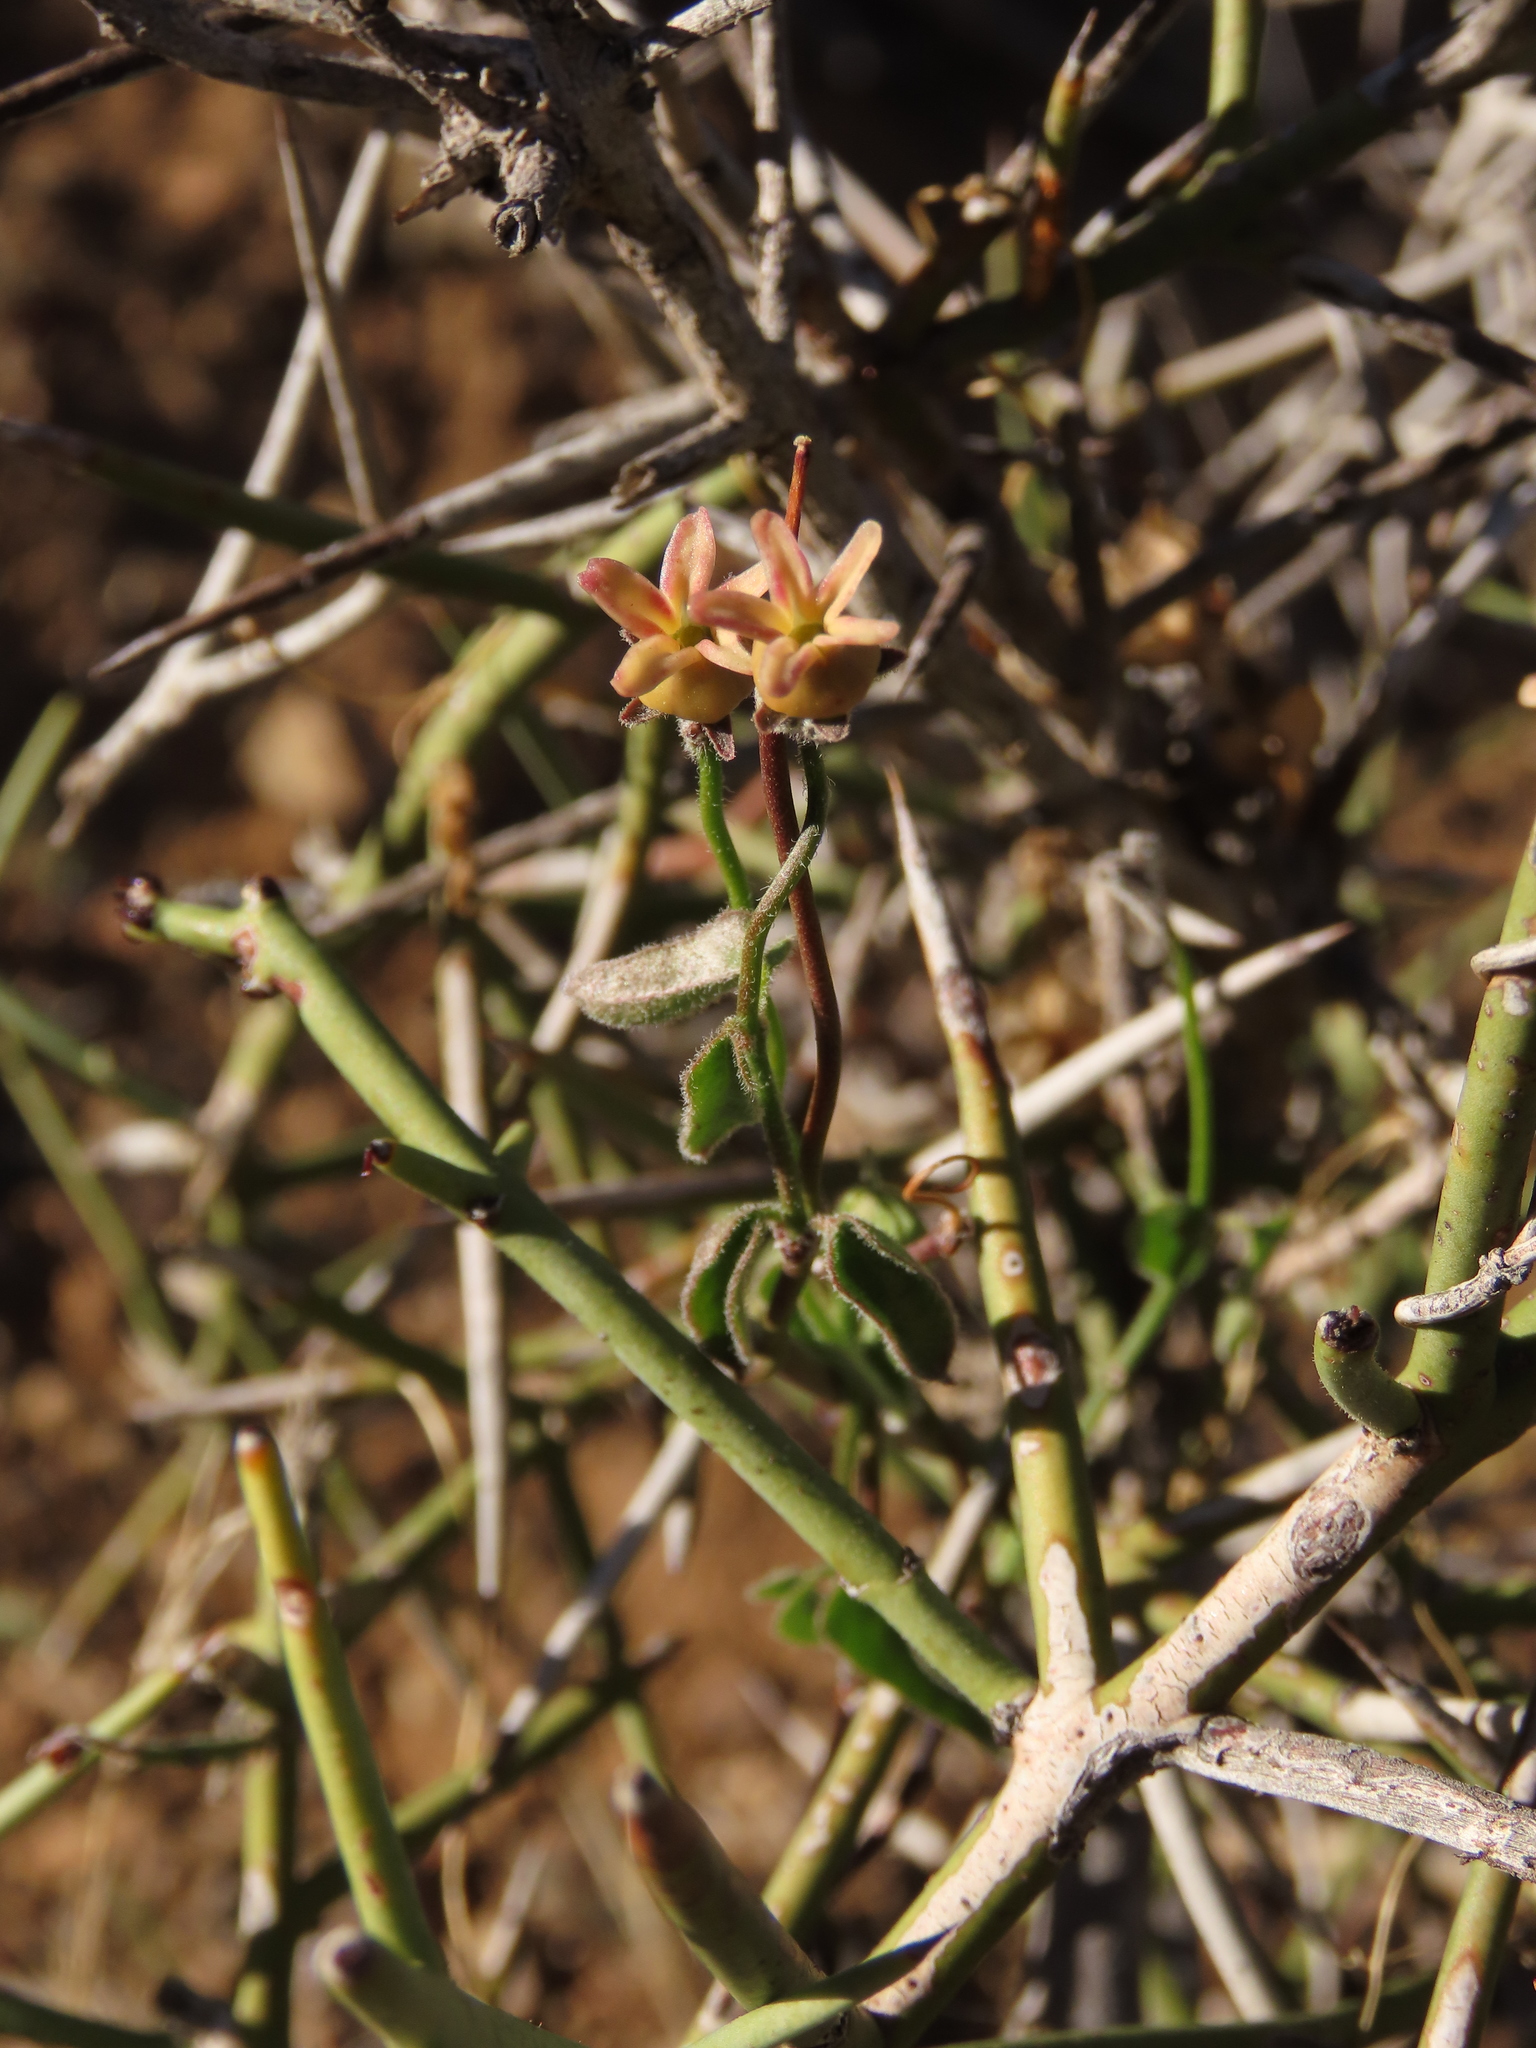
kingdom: Plantae
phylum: Tracheophyta
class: Magnoliopsida
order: Gentianales
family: Apocynaceae
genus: Diplolepis
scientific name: Diplolepis geminiflora
